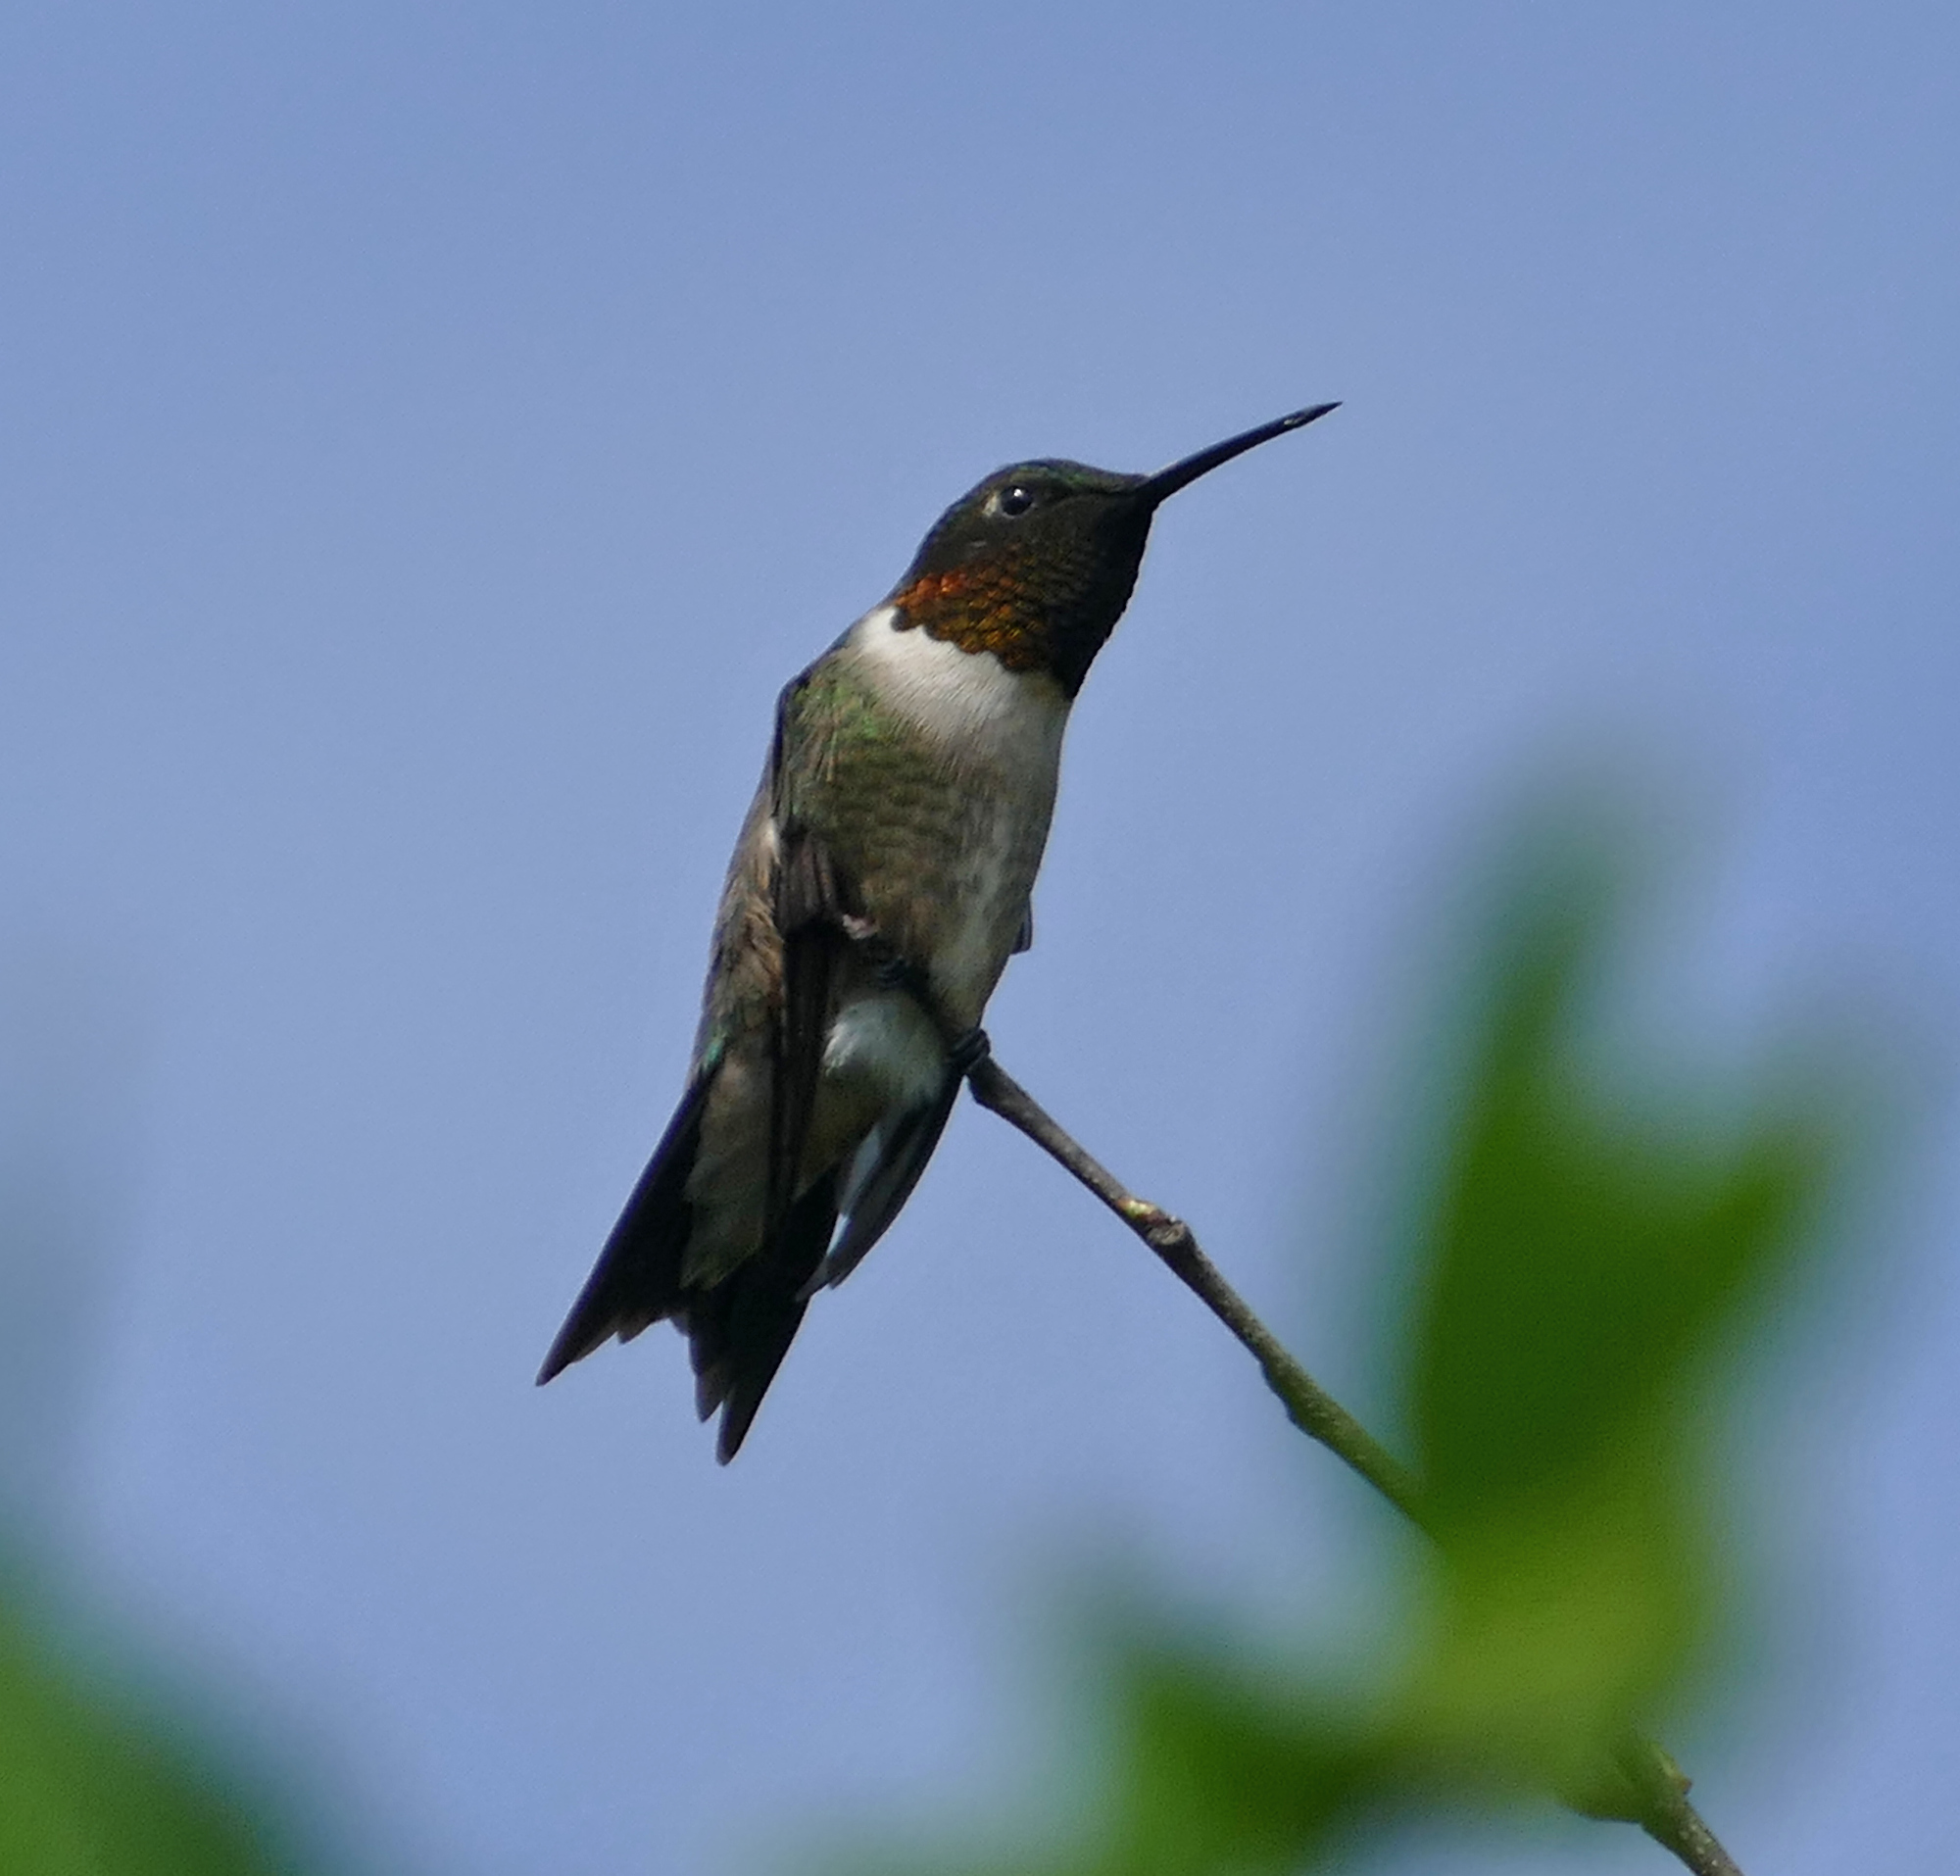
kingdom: Animalia
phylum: Chordata
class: Aves
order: Apodiformes
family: Trochilidae
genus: Archilochus
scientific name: Archilochus colubris
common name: Ruby-throated hummingbird
